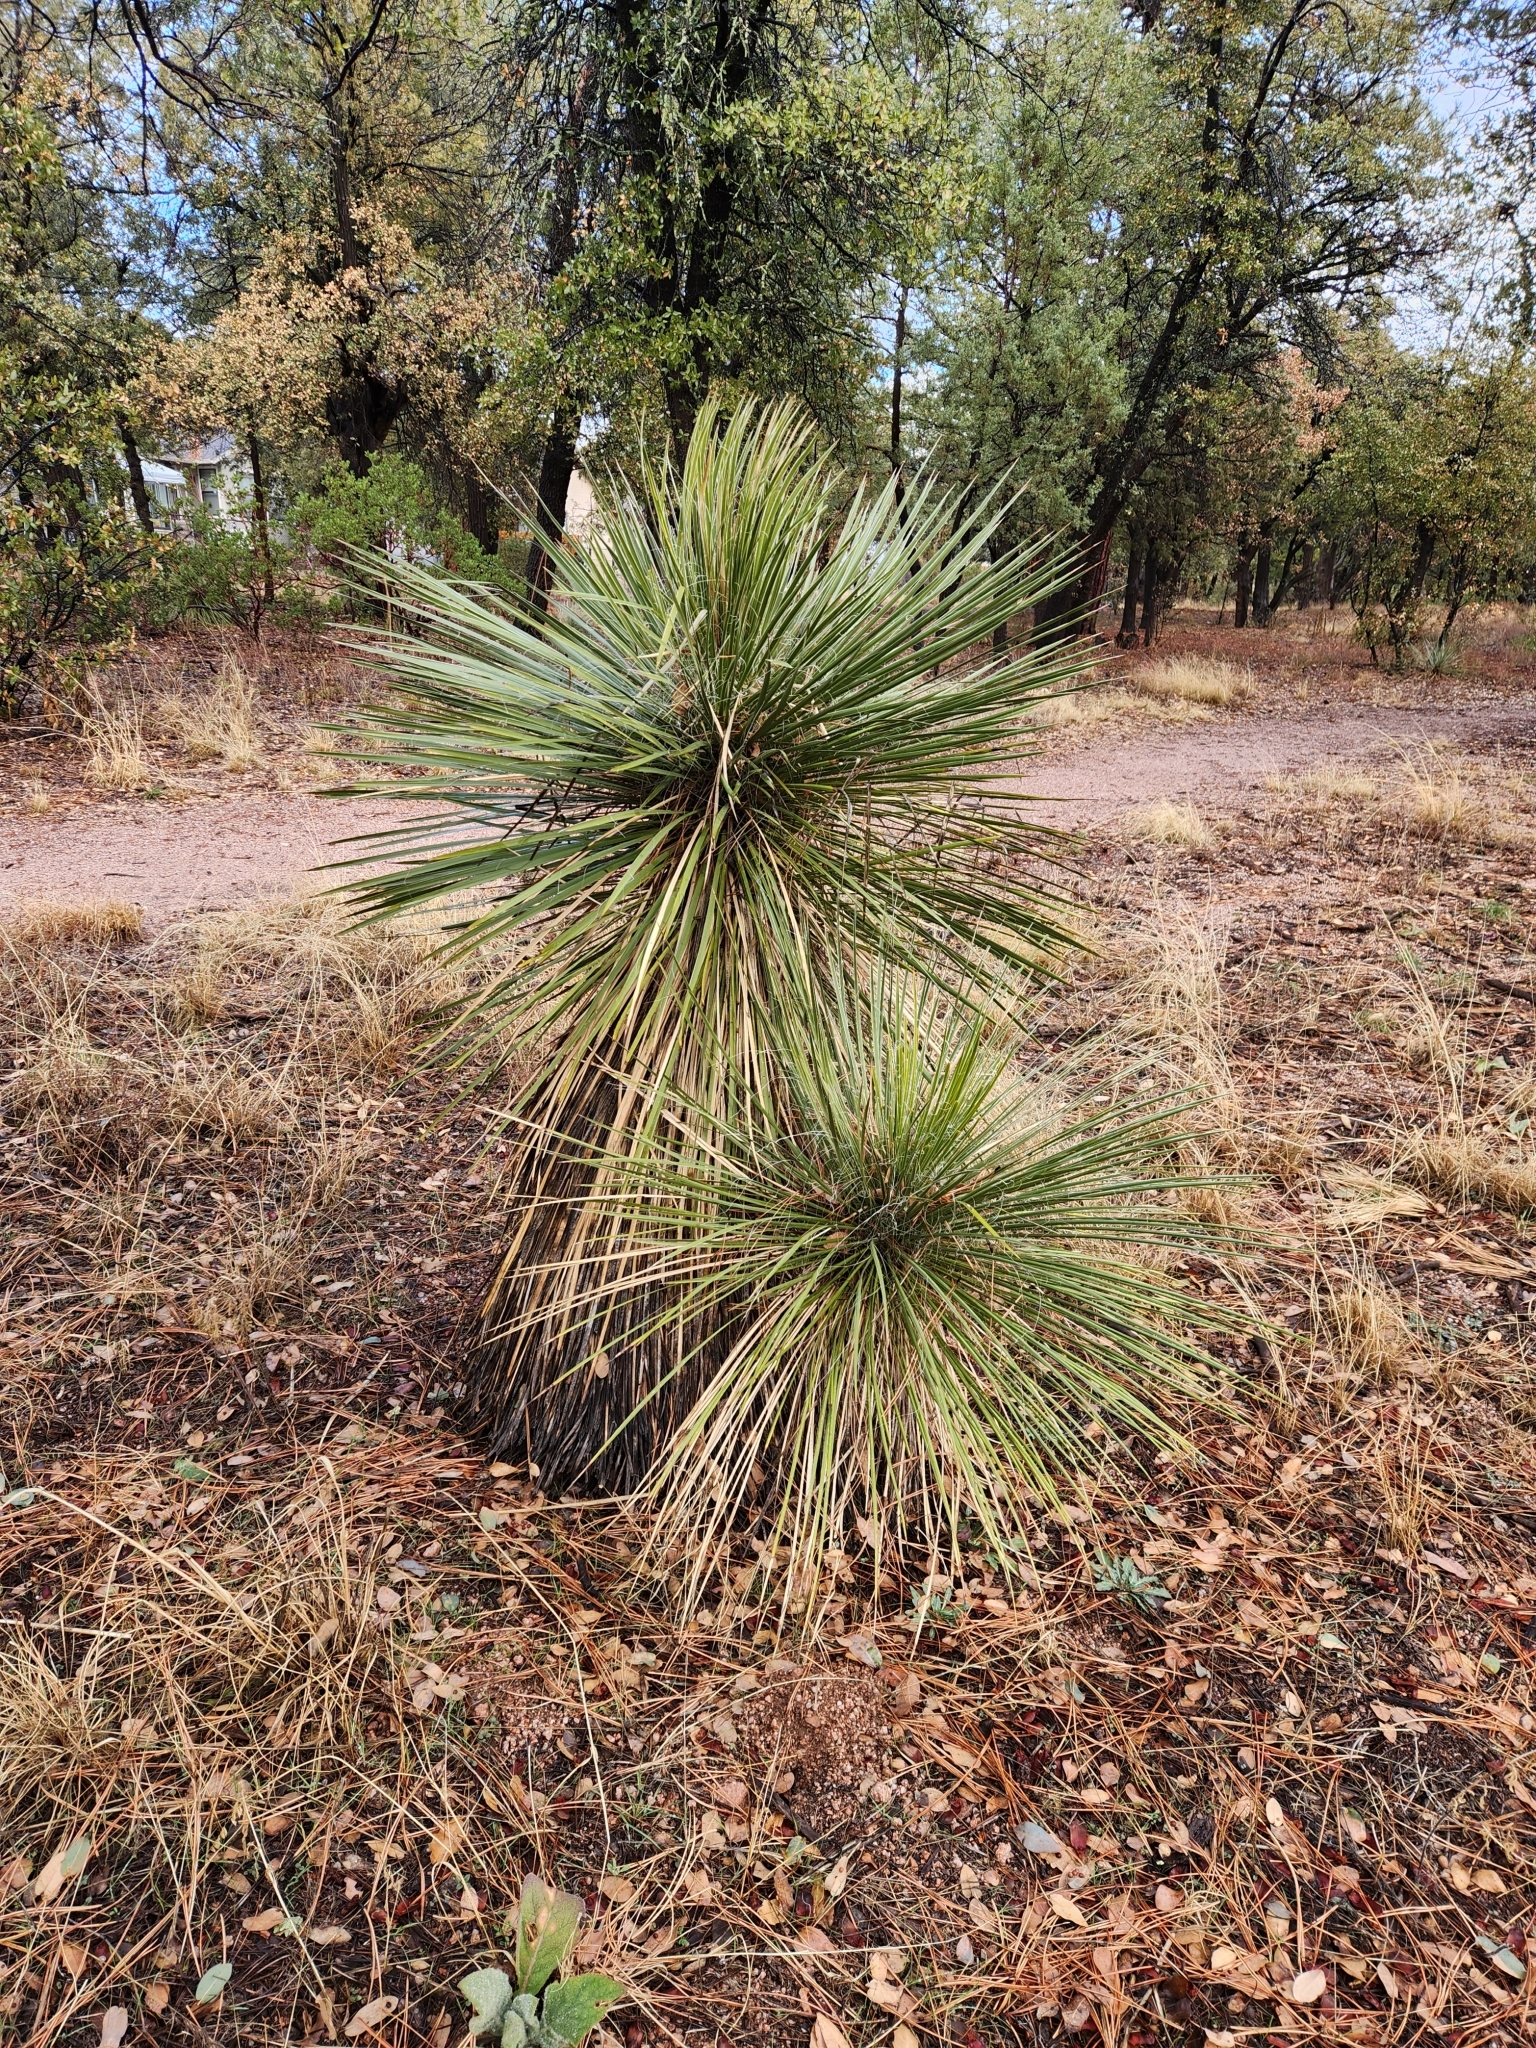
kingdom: Plantae
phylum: Tracheophyta
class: Liliopsida
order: Asparagales
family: Asparagaceae
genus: Yucca
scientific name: Yucca elata
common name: Palmella
